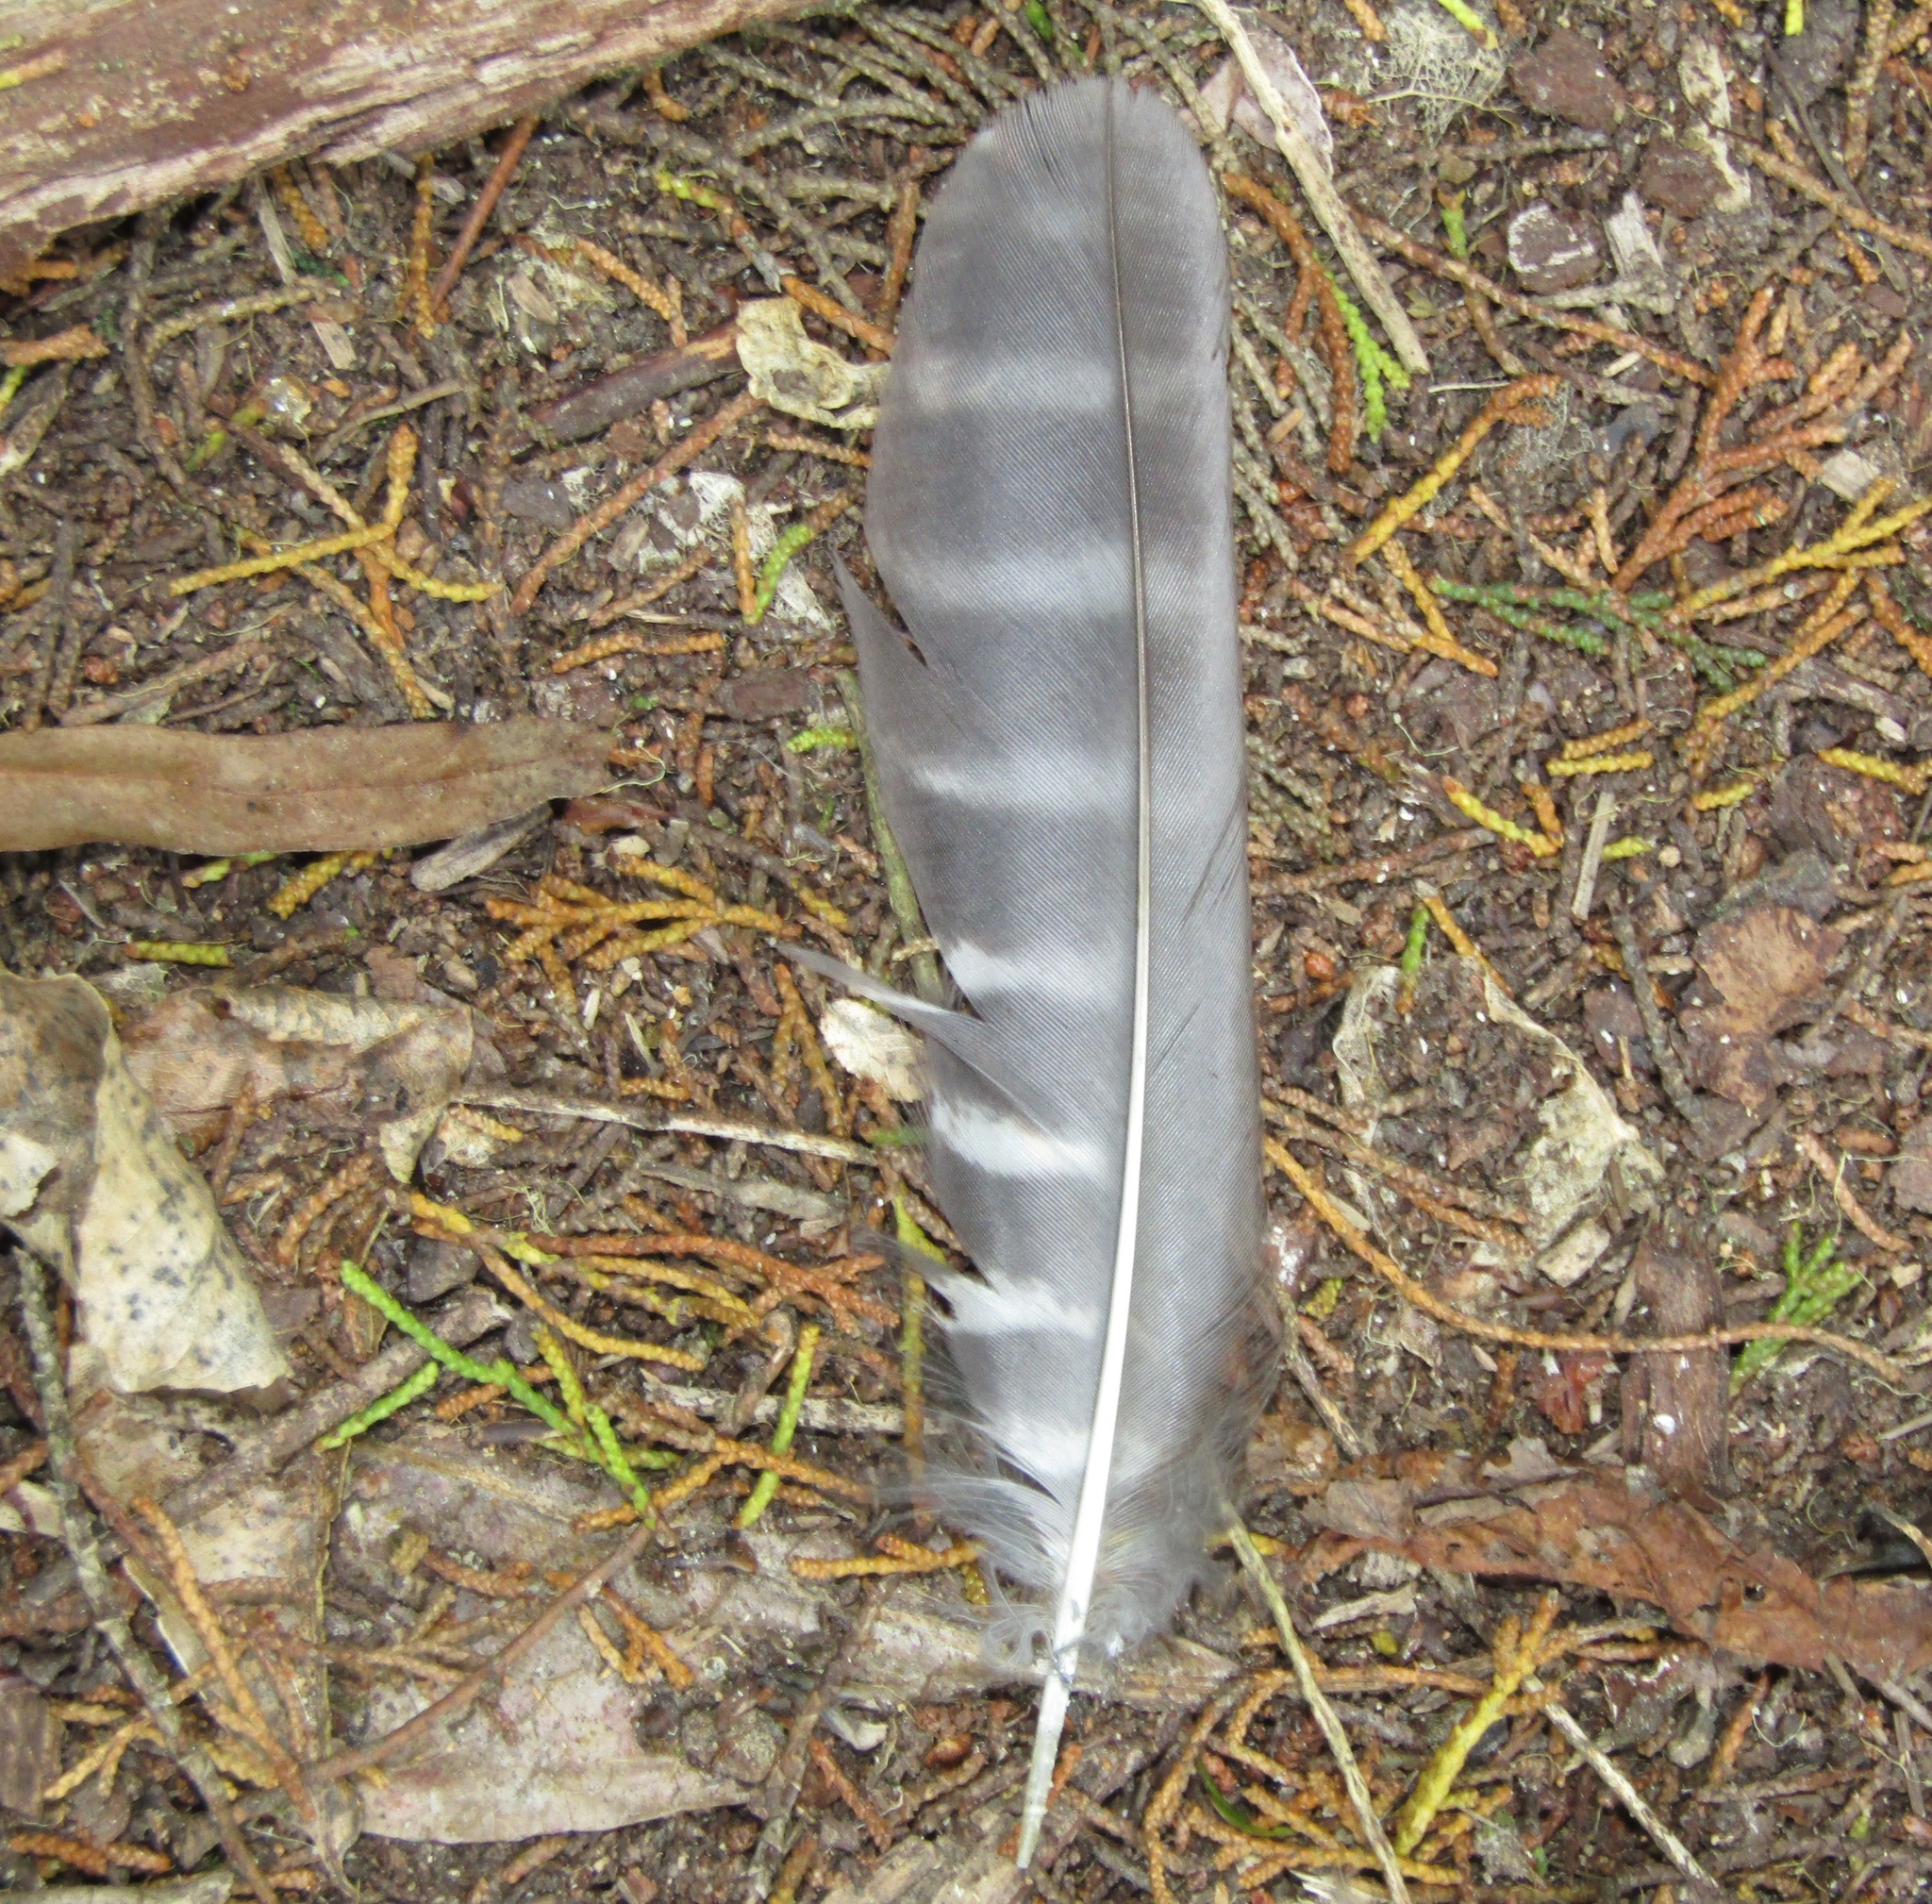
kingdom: Animalia
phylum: Chordata
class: Aves
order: Strigiformes
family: Strigidae
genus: Ninox
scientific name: Ninox novaeseelandiae
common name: Morepork
